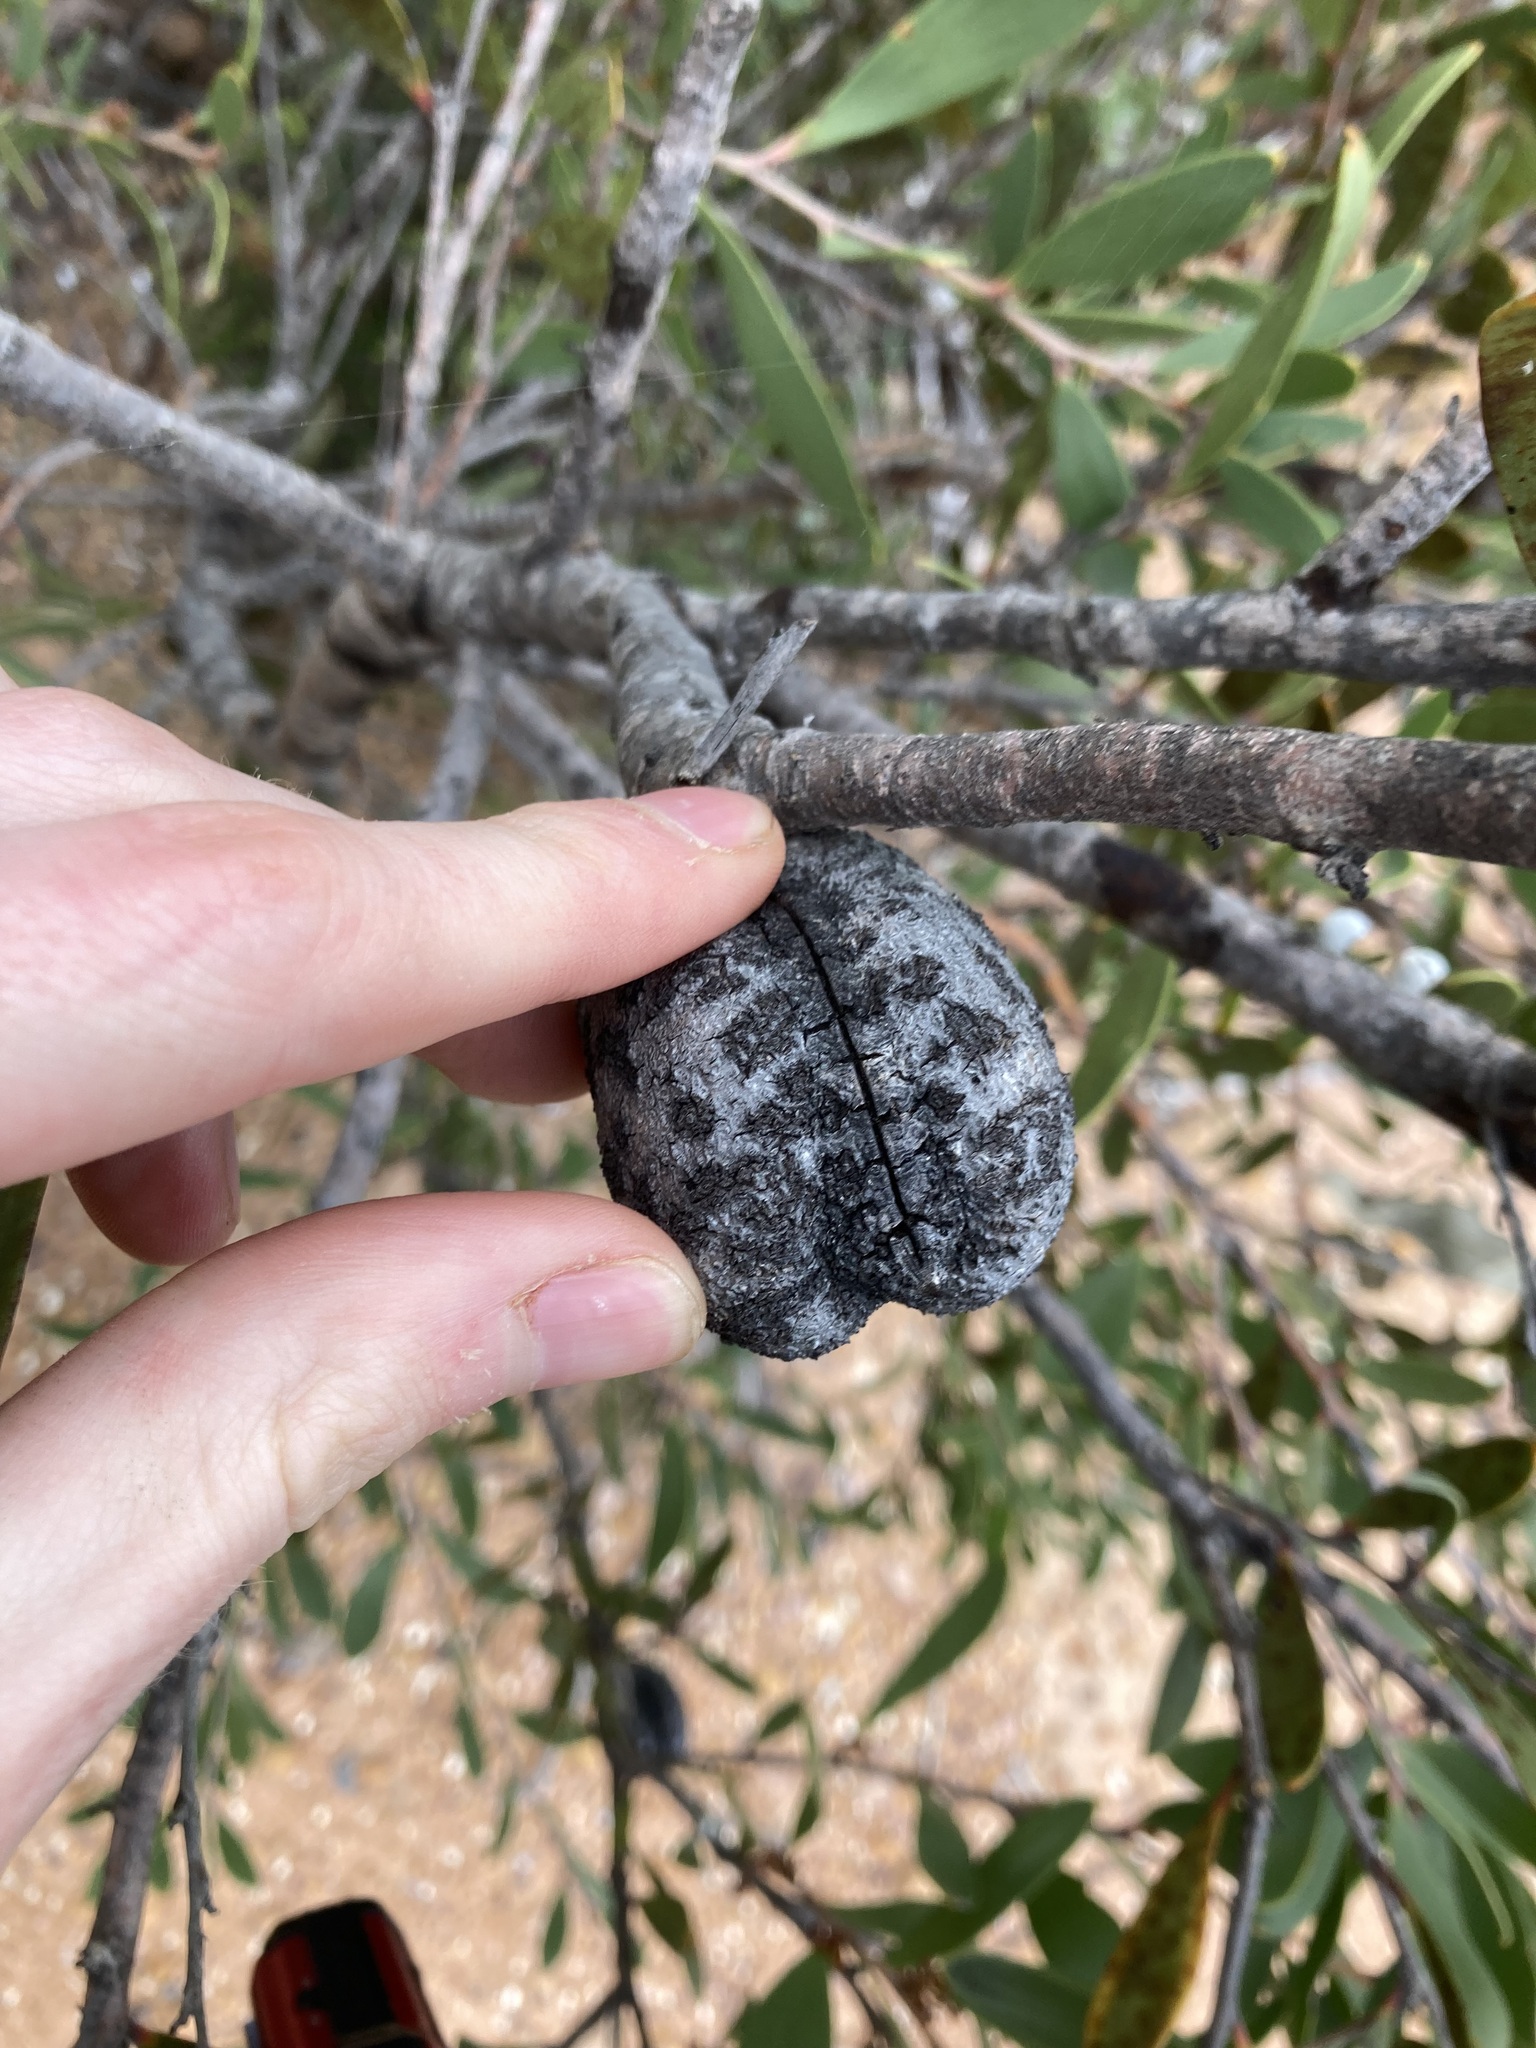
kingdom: Plantae
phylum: Tracheophyta
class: Magnoliopsida
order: Proteales
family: Proteaceae
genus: Hakea
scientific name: Hakea pandanicarpa
